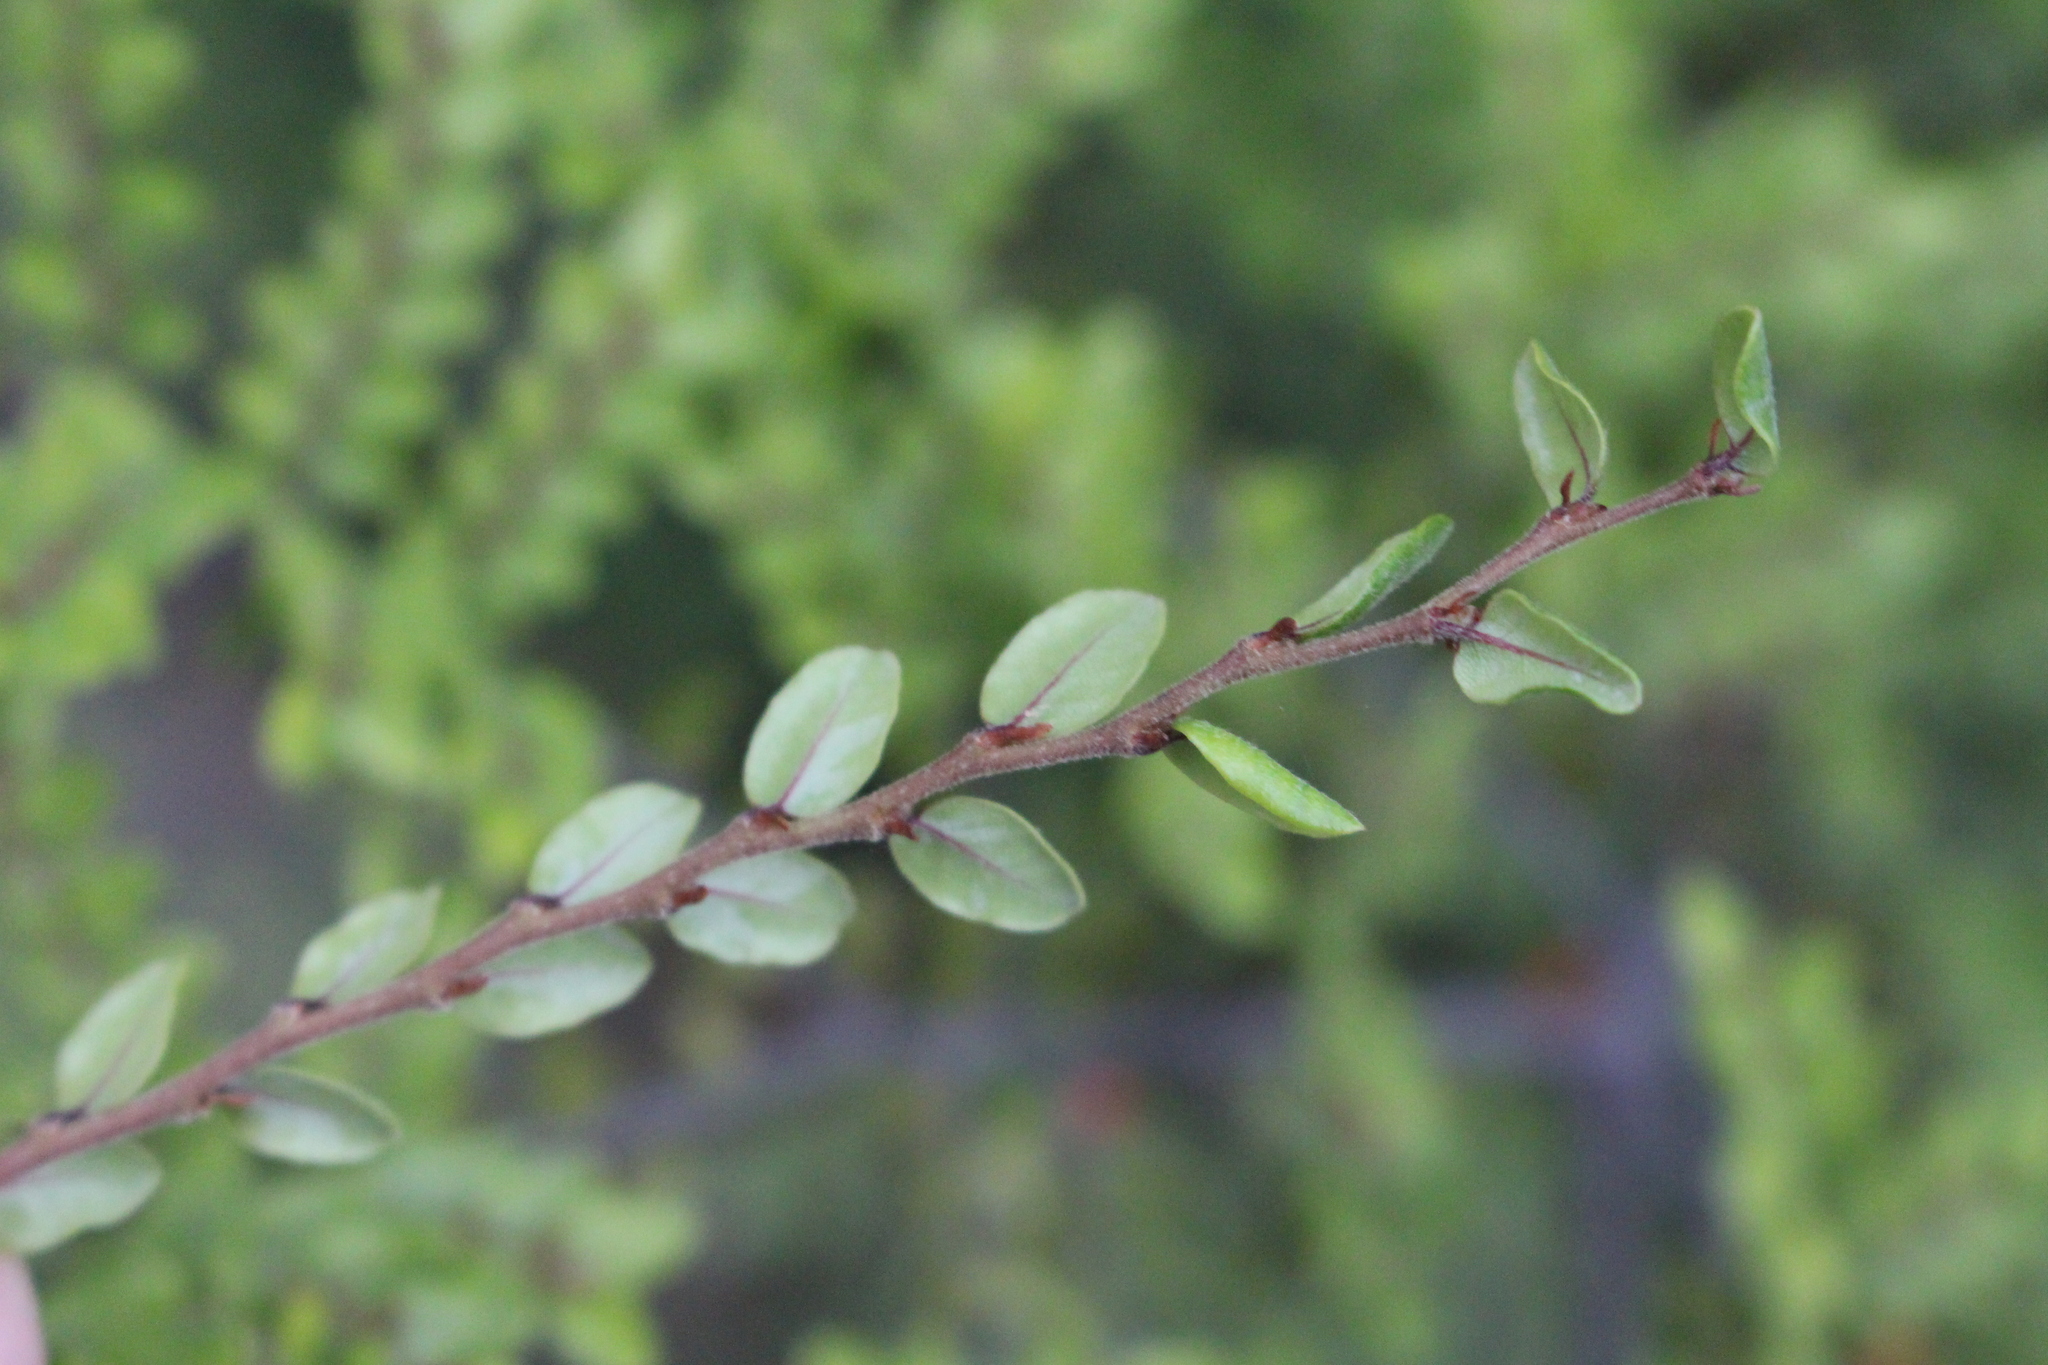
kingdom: Plantae
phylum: Tracheophyta
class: Magnoliopsida
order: Fagales
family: Nothofagaceae
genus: Nothofagus
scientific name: Nothofagus cliffortioides
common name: Mountain beech
